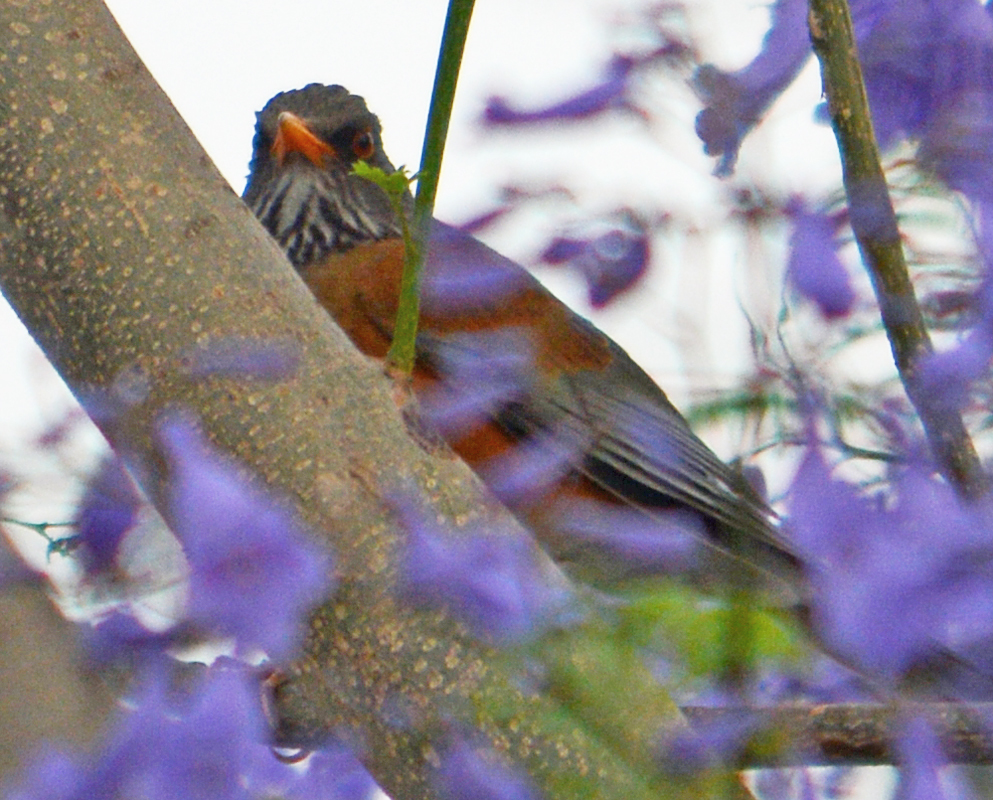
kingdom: Animalia
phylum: Chordata
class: Aves
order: Passeriformes
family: Turdidae
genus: Turdus
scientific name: Turdus rufopalliatus
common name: Rufous-backed robin
